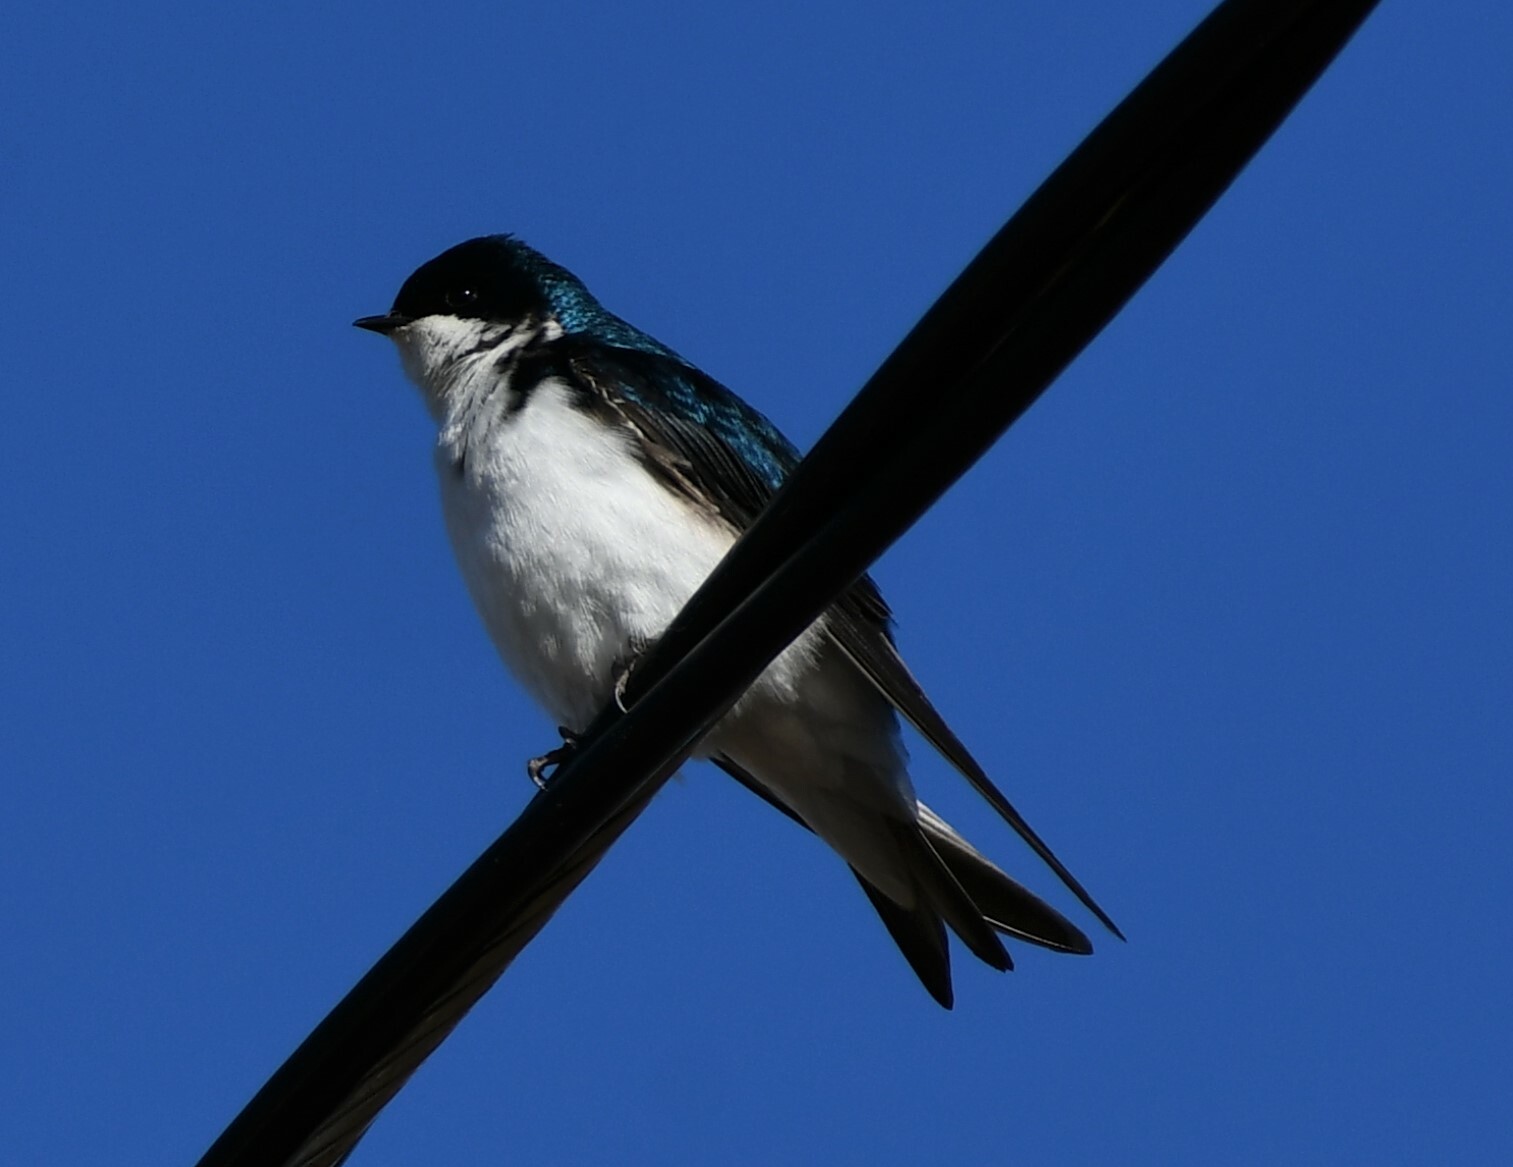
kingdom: Animalia
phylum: Chordata
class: Aves
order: Passeriformes
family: Hirundinidae
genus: Tachycineta
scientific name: Tachycineta bicolor
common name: Tree swallow
